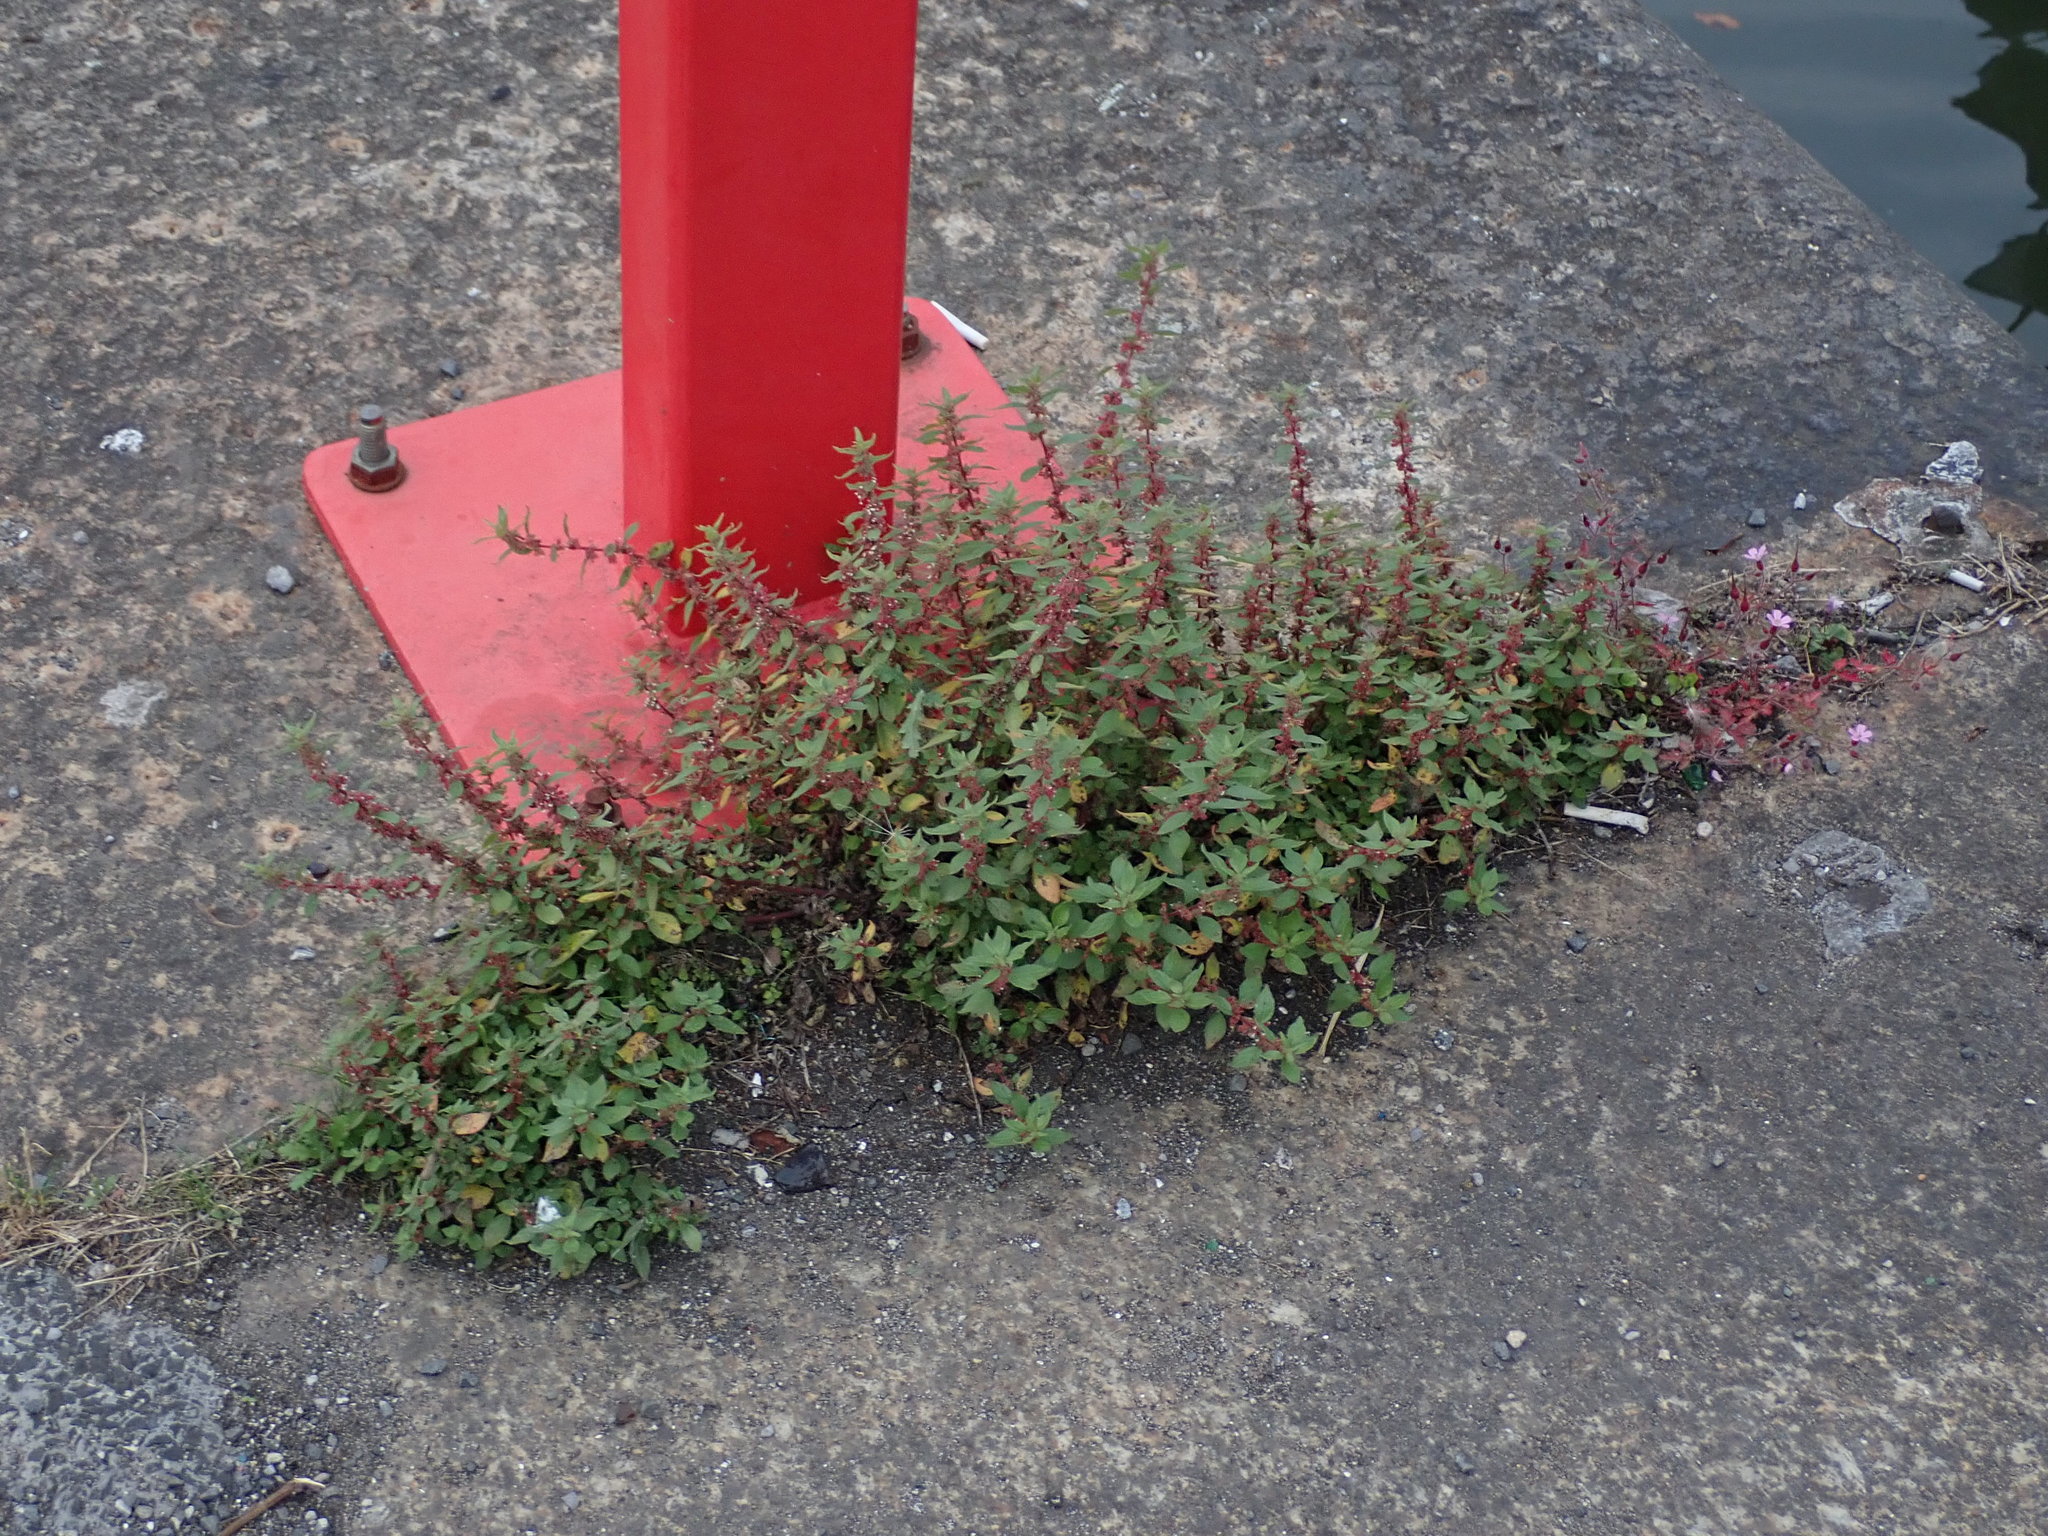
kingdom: Plantae
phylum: Tracheophyta
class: Magnoliopsida
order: Rosales
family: Urticaceae
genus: Parietaria
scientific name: Parietaria judaica
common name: Pellitory-of-the-wall
